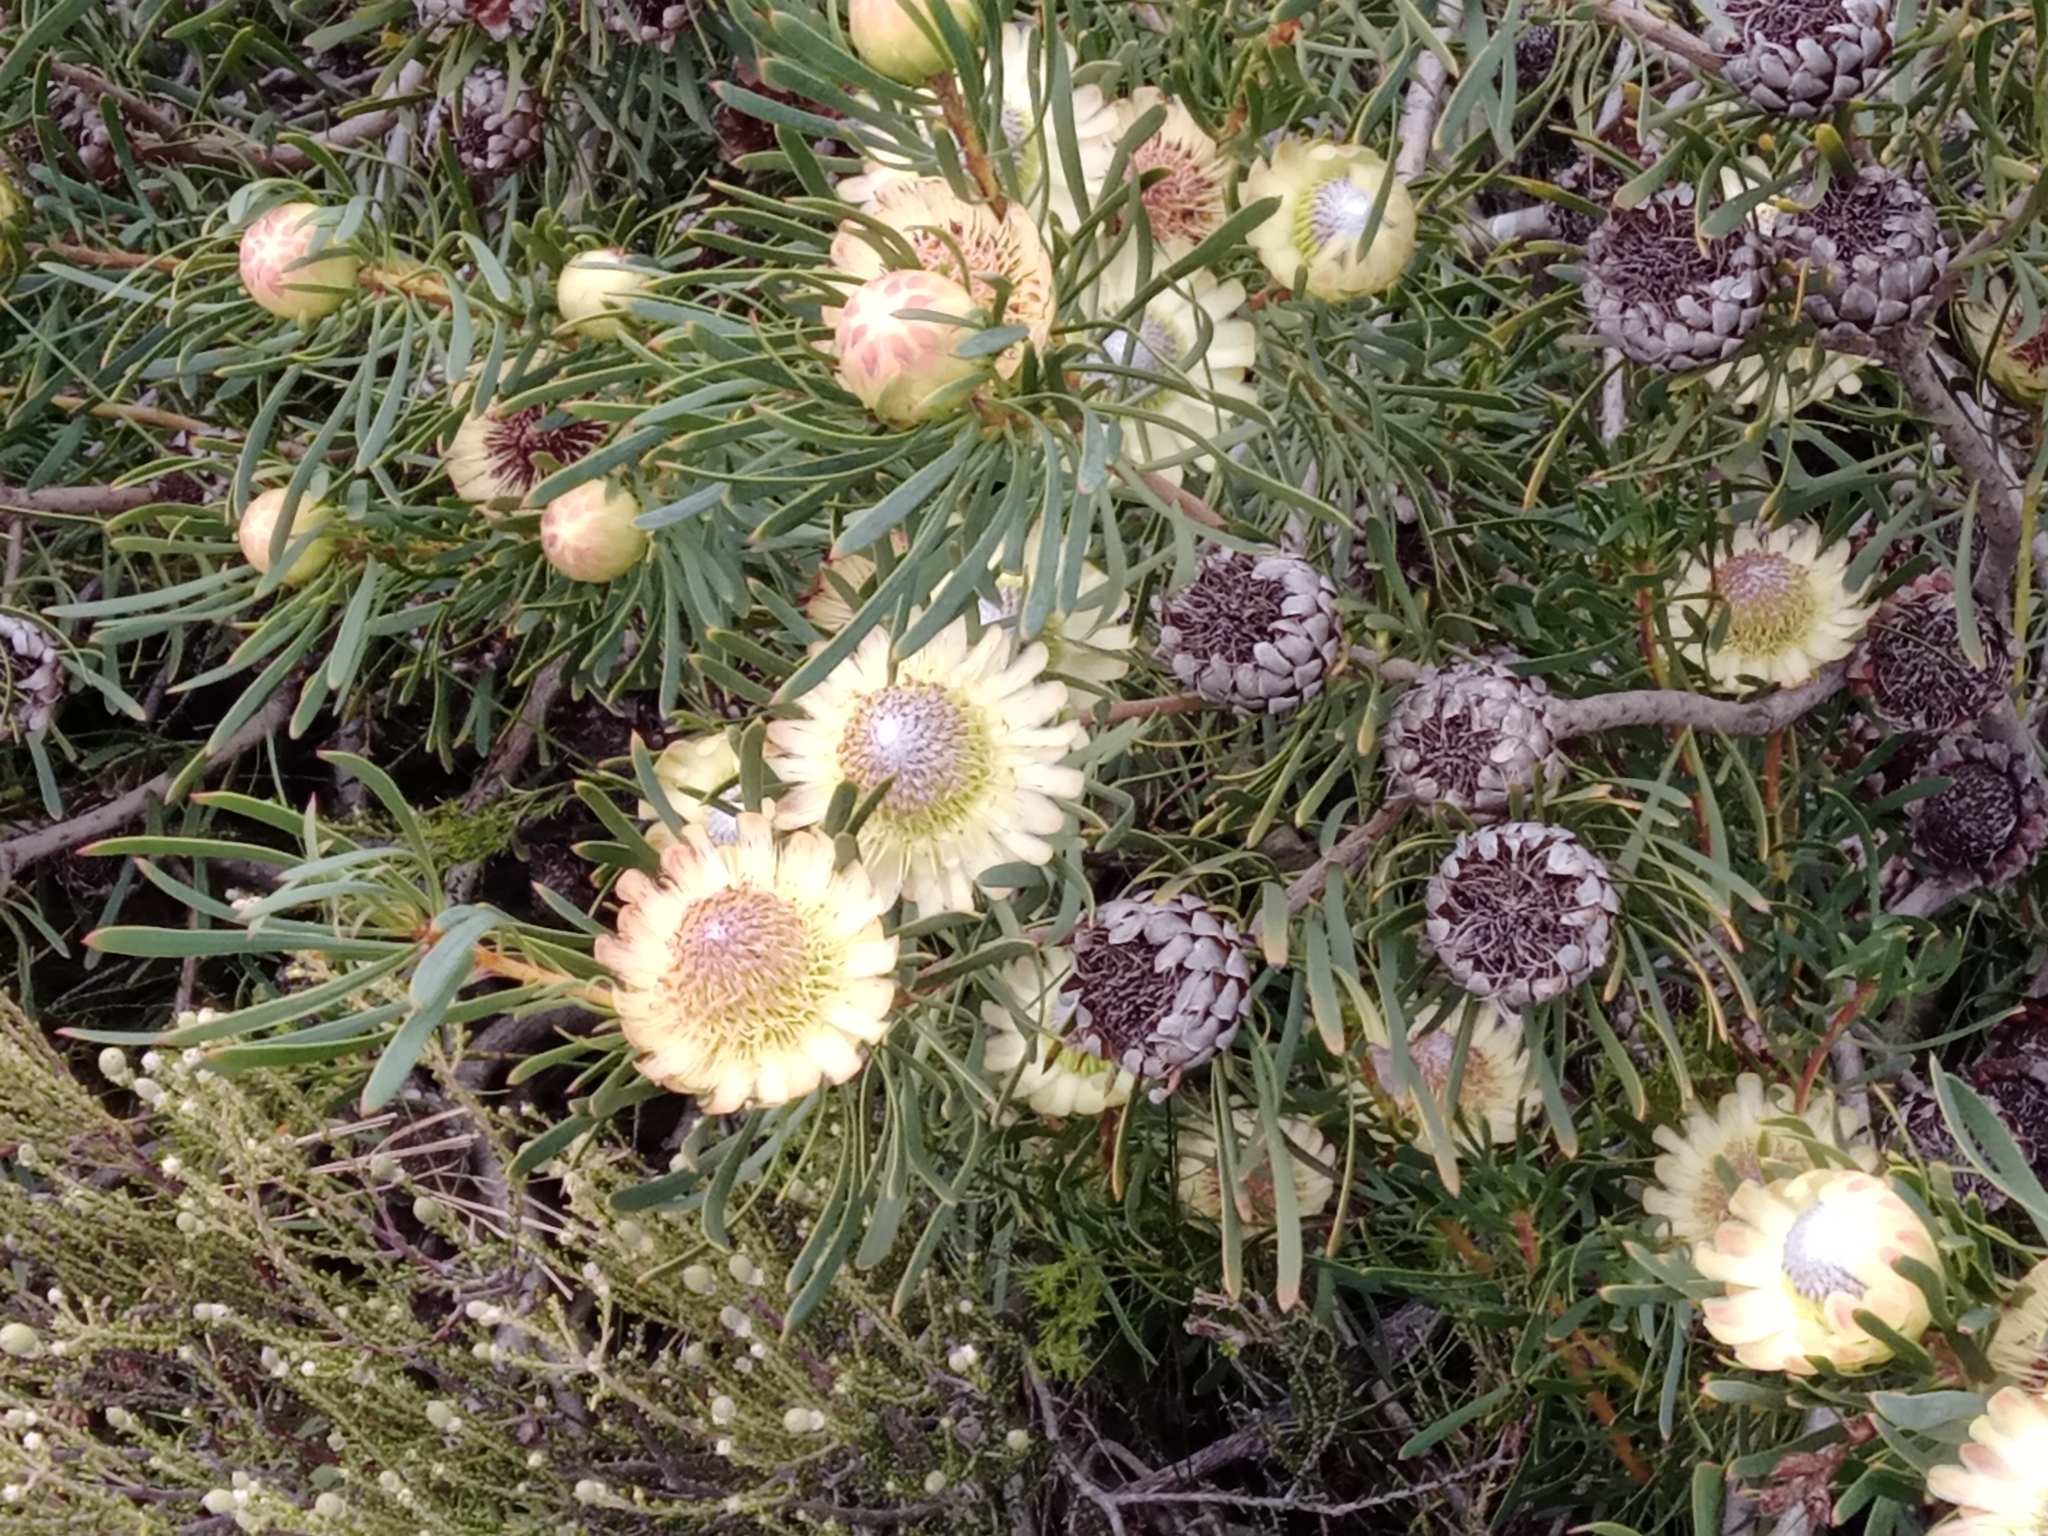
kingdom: Plantae
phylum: Tracheophyta
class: Magnoliopsida
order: Proteales
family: Proteaceae
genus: Protea
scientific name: Protea scolymocephala
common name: Thistle sugarbush
